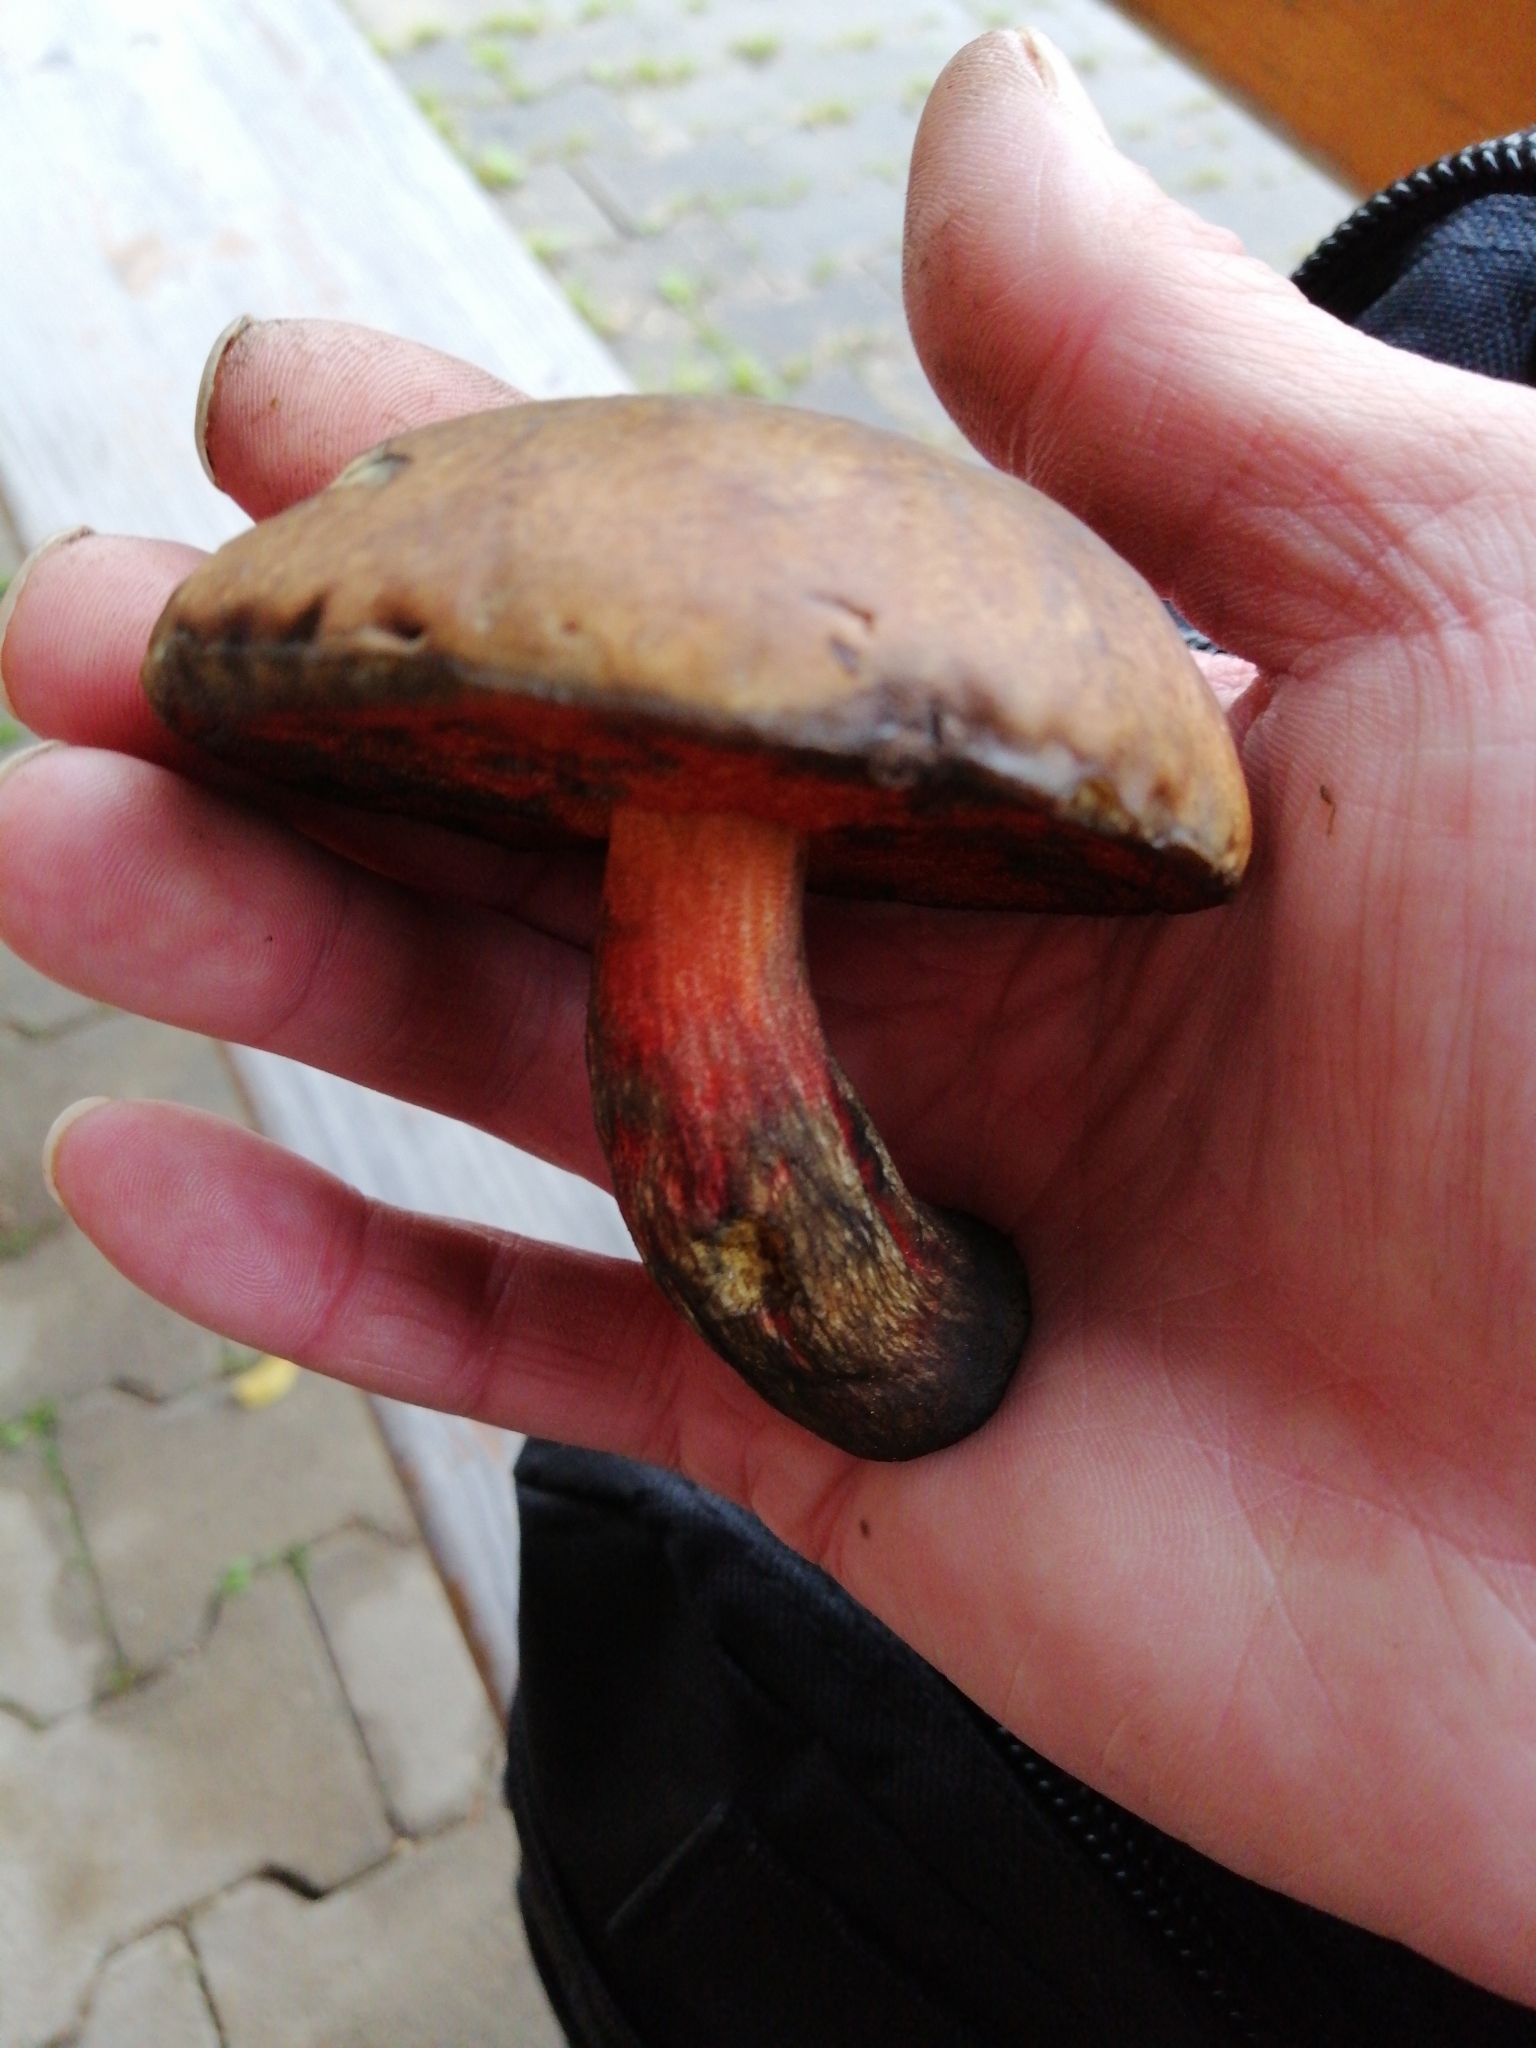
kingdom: Fungi
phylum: Basidiomycota
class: Agaricomycetes
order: Boletales
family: Boletaceae
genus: Neoboletus
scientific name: Neoboletus erythropus
